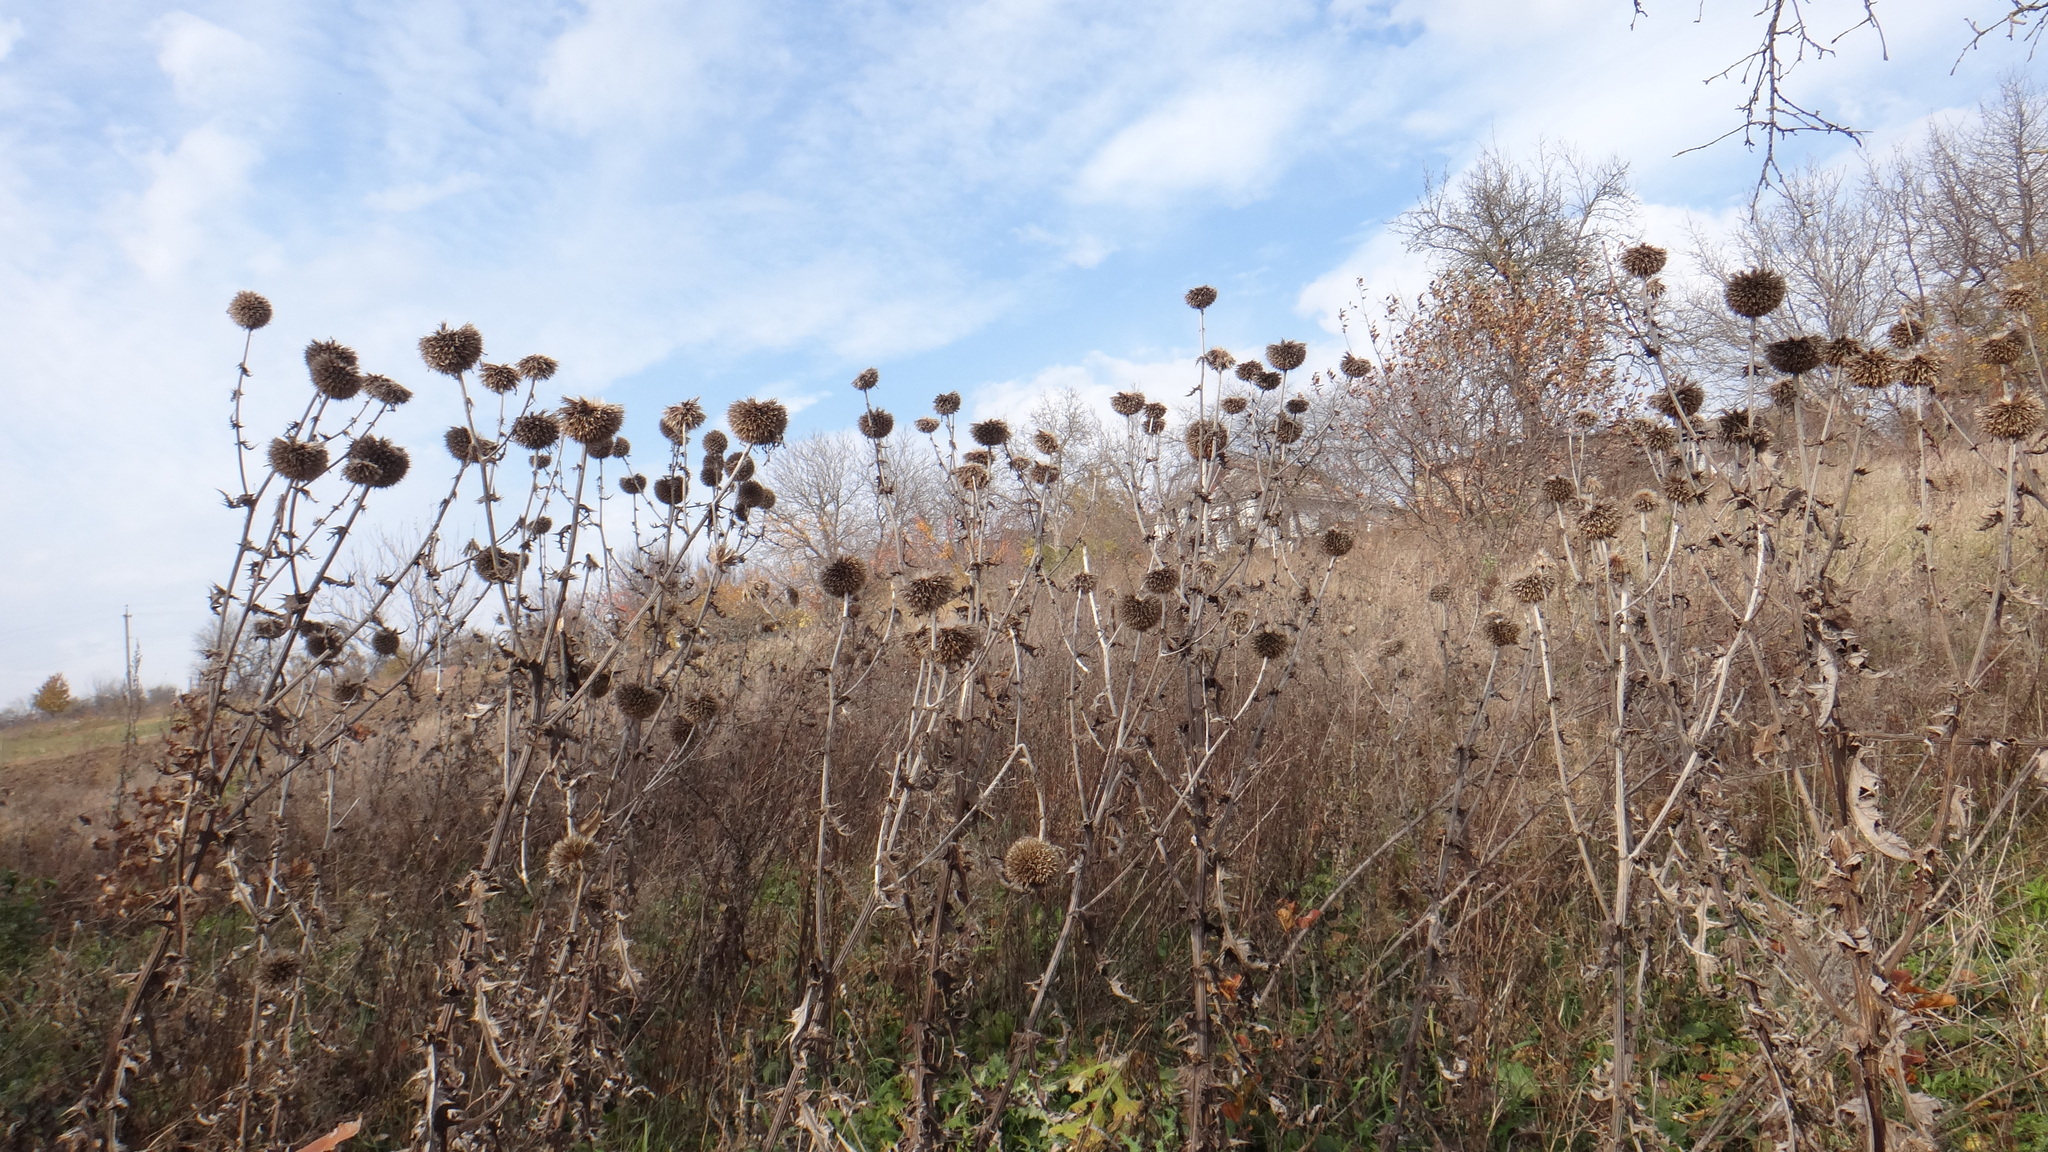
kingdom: Plantae
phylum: Tracheophyta
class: Magnoliopsida
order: Asterales
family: Asteraceae
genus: Echinops
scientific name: Echinops sphaerocephalus
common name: Glandular globe-thistle
